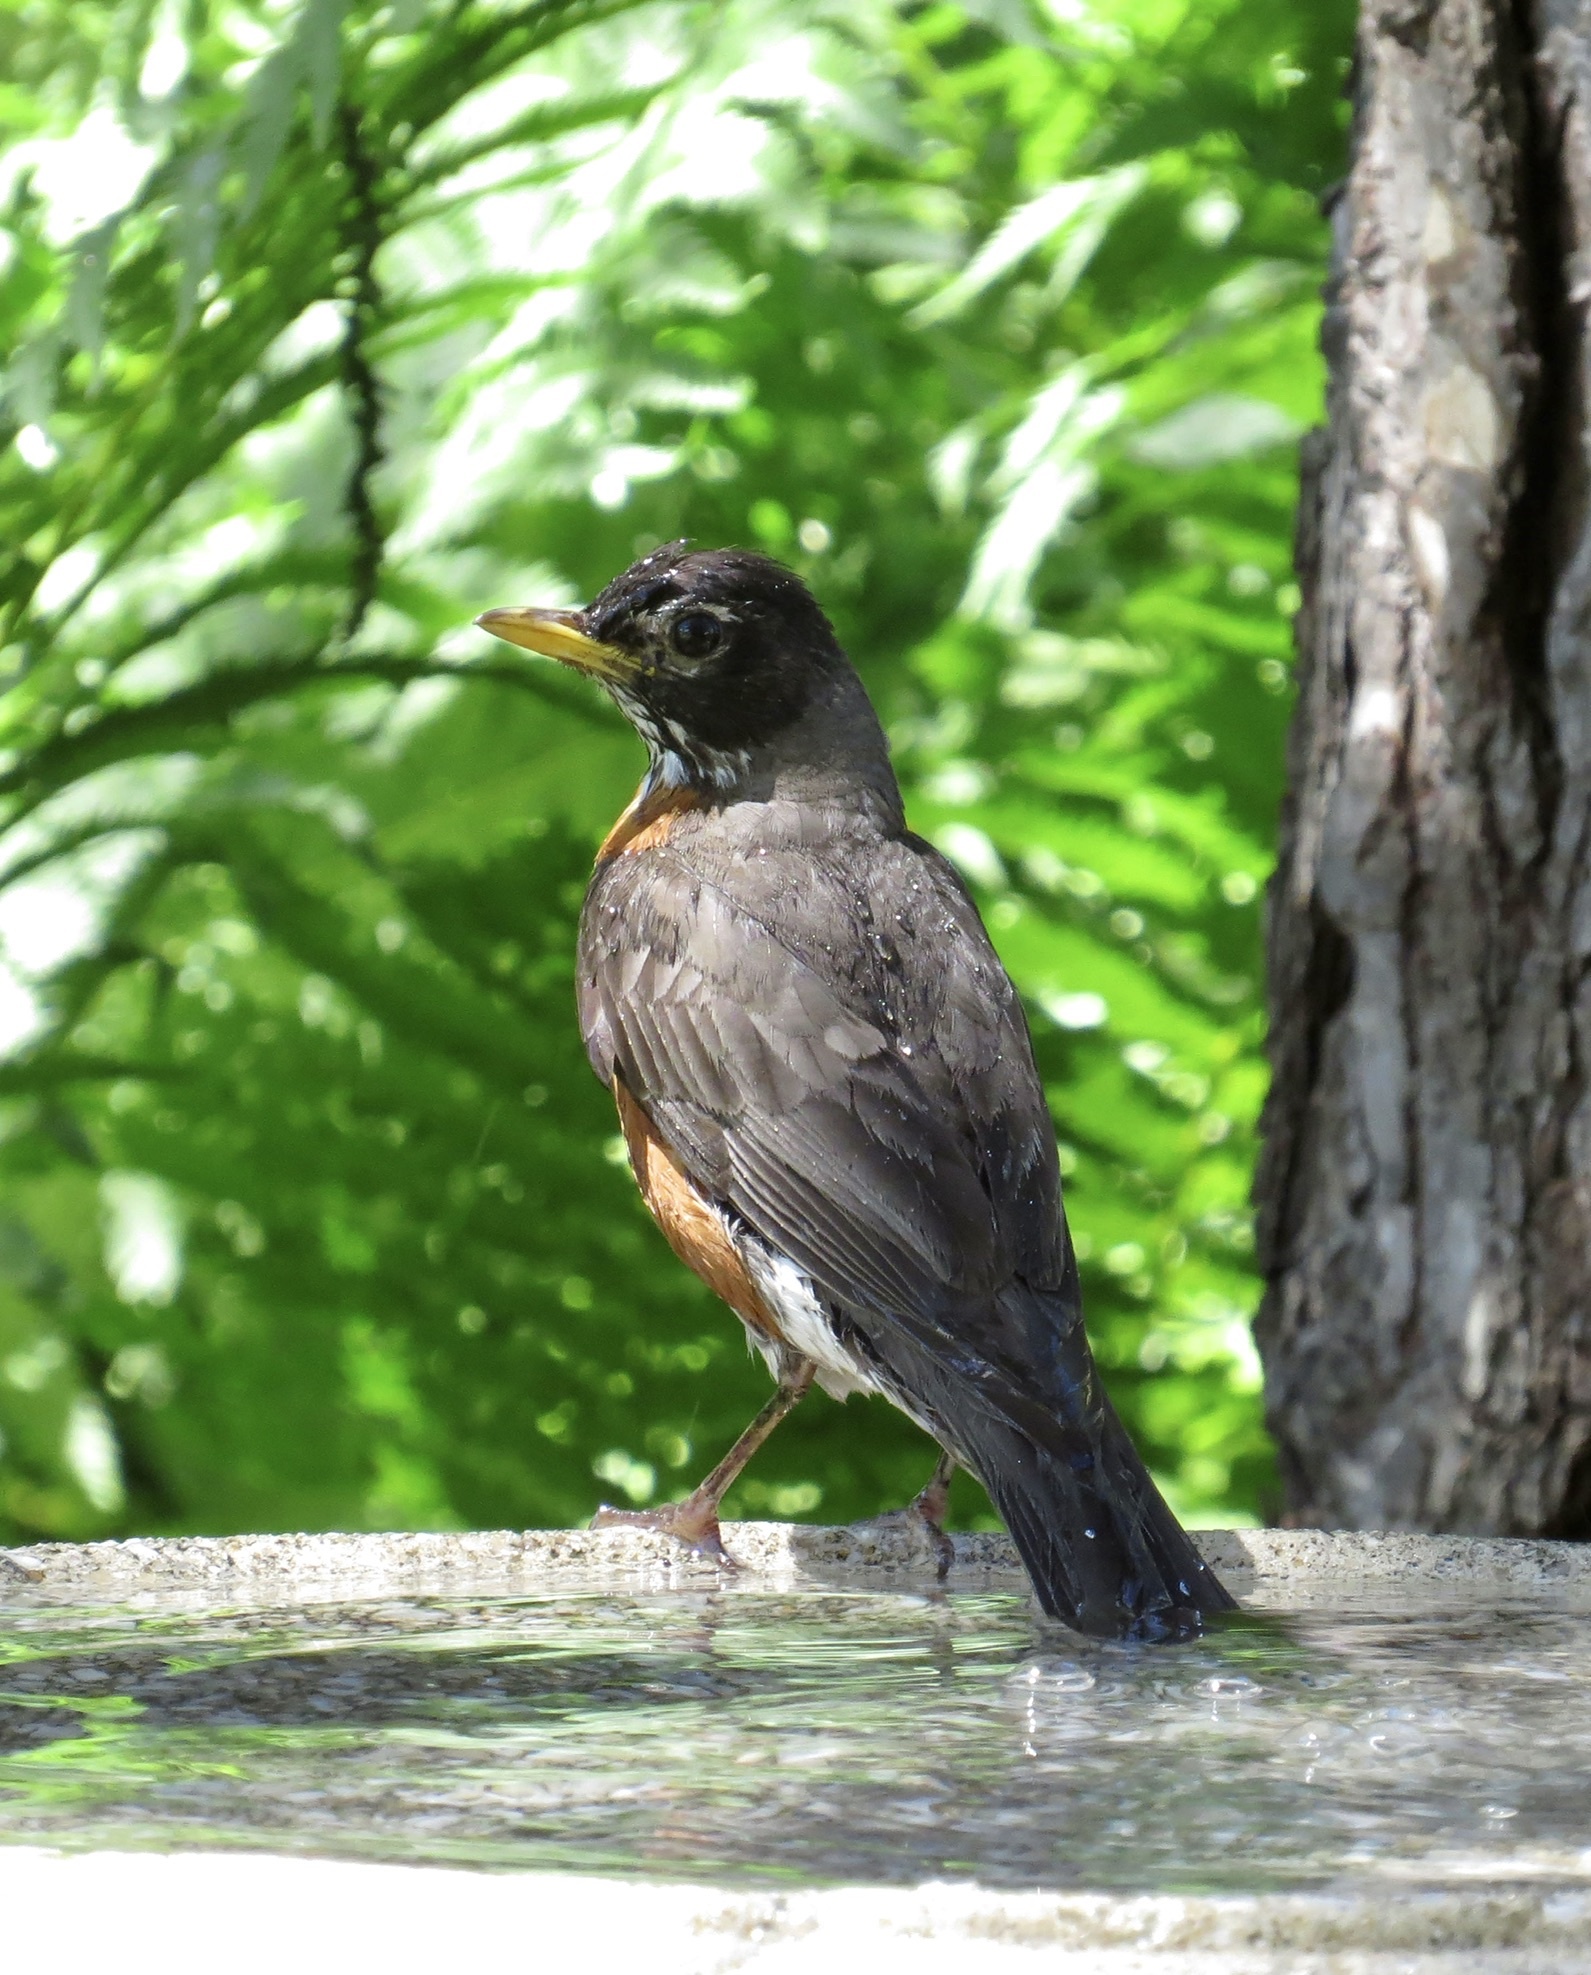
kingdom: Animalia
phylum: Chordata
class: Aves
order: Passeriformes
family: Turdidae
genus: Turdus
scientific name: Turdus migratorius
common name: American robin
